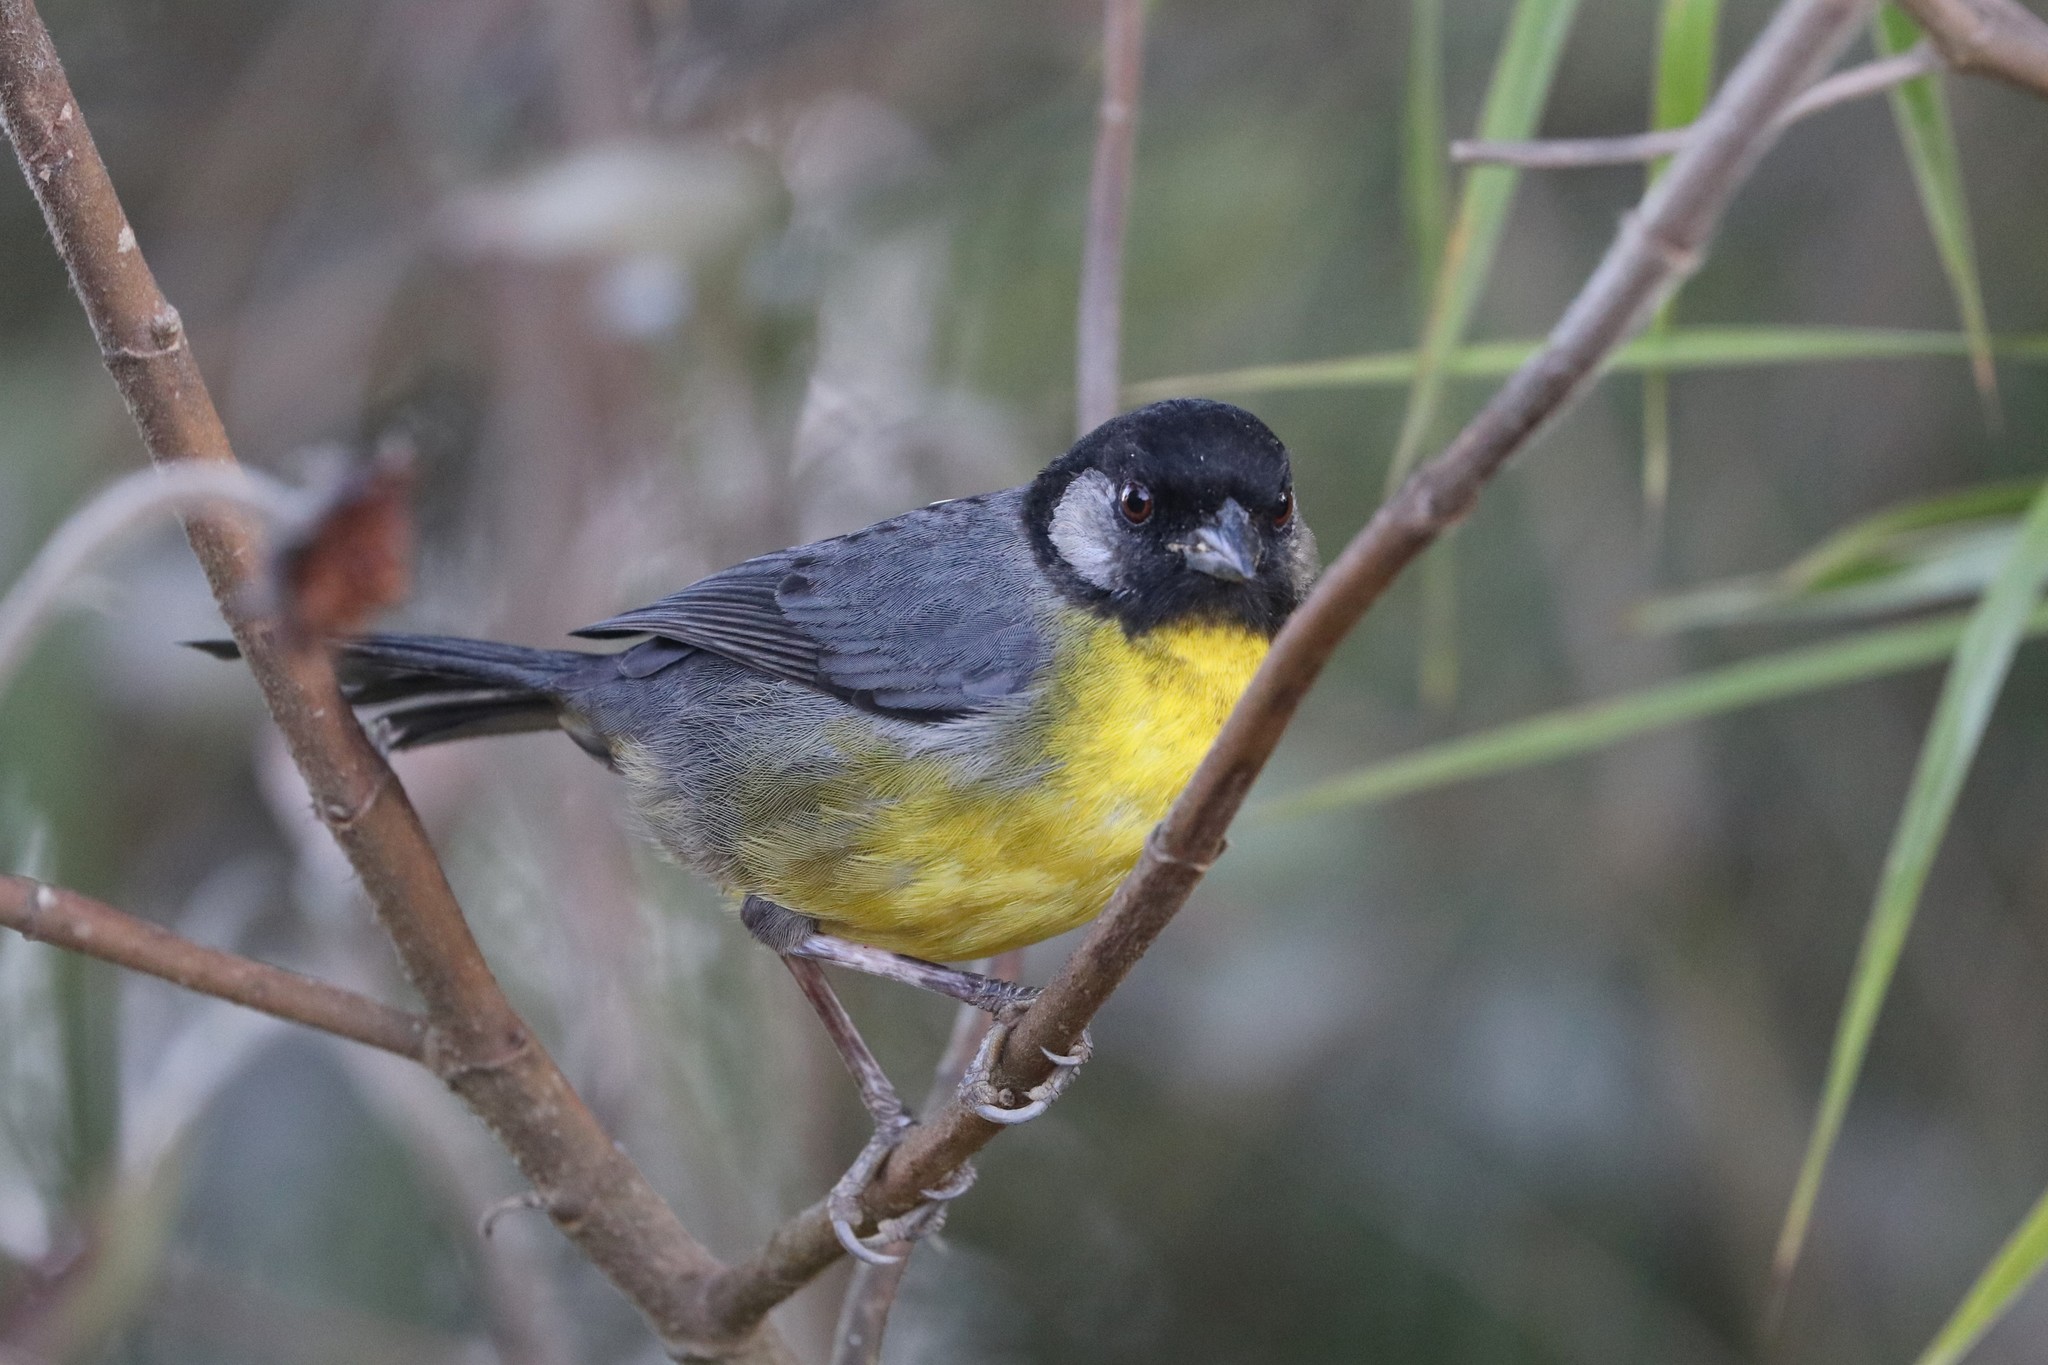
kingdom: Animalia
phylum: Chordata
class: Aves
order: Passeriformes
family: Passerellidae
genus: Atlapetes
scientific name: Atlapetes melanocephalus
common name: Santa marta brush-finch
